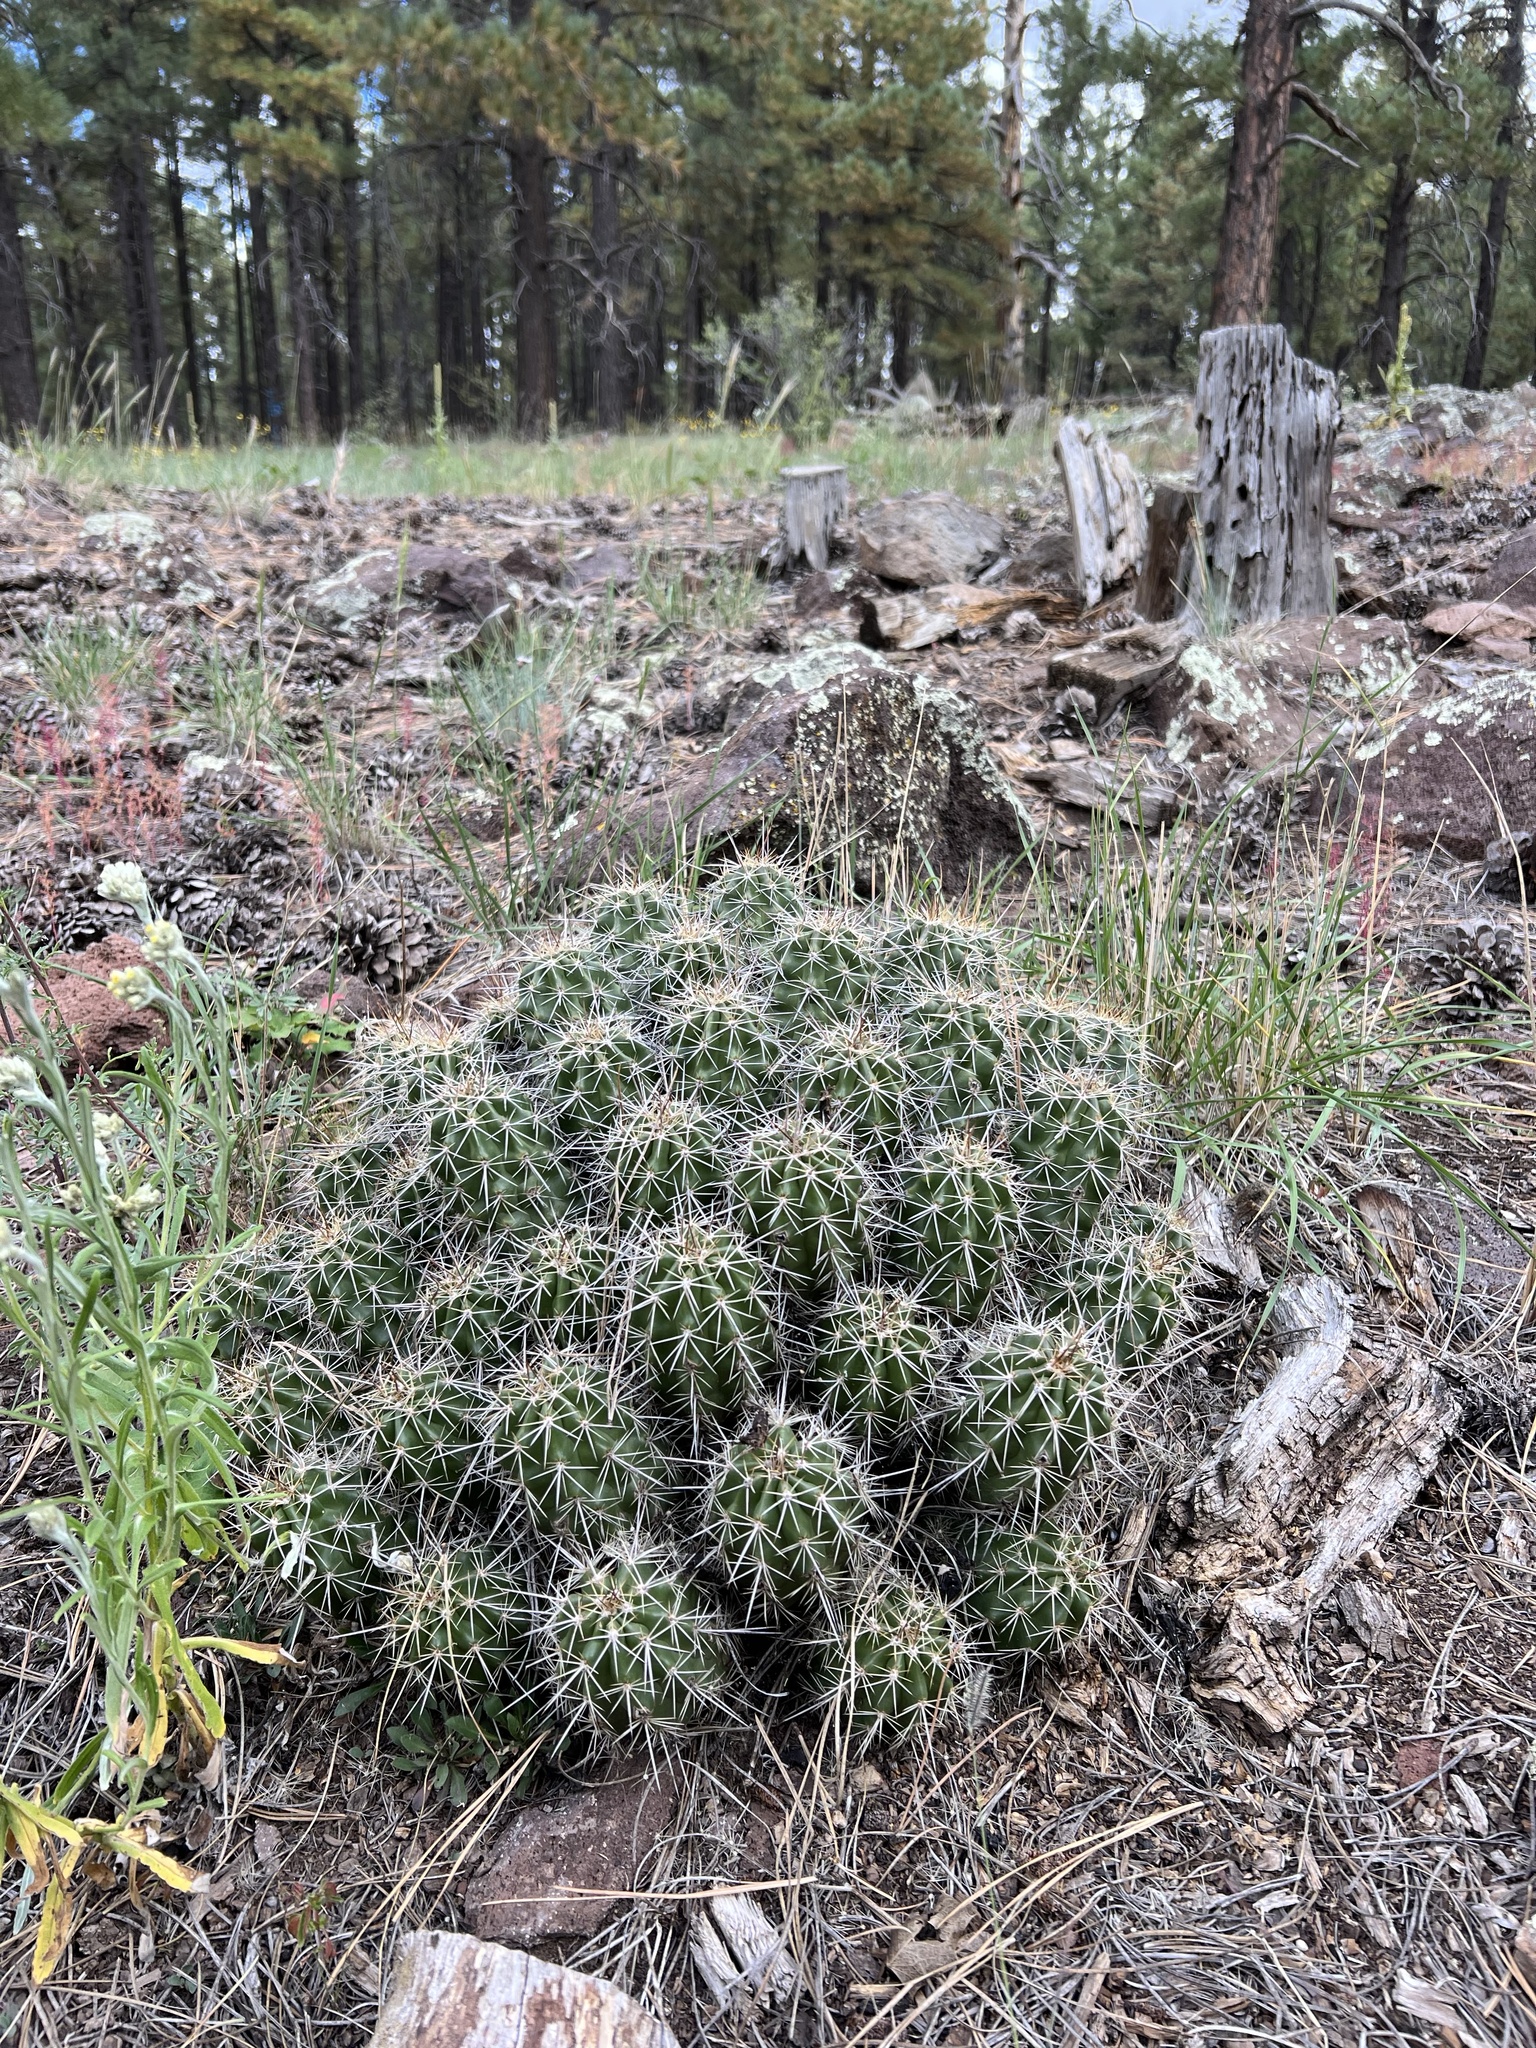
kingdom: Plantae
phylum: Tracheophyta
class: Magnoliopsida
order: Caryophyllales
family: Cactaceae
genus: Echinocereus
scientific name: Echinocereus bakeri
